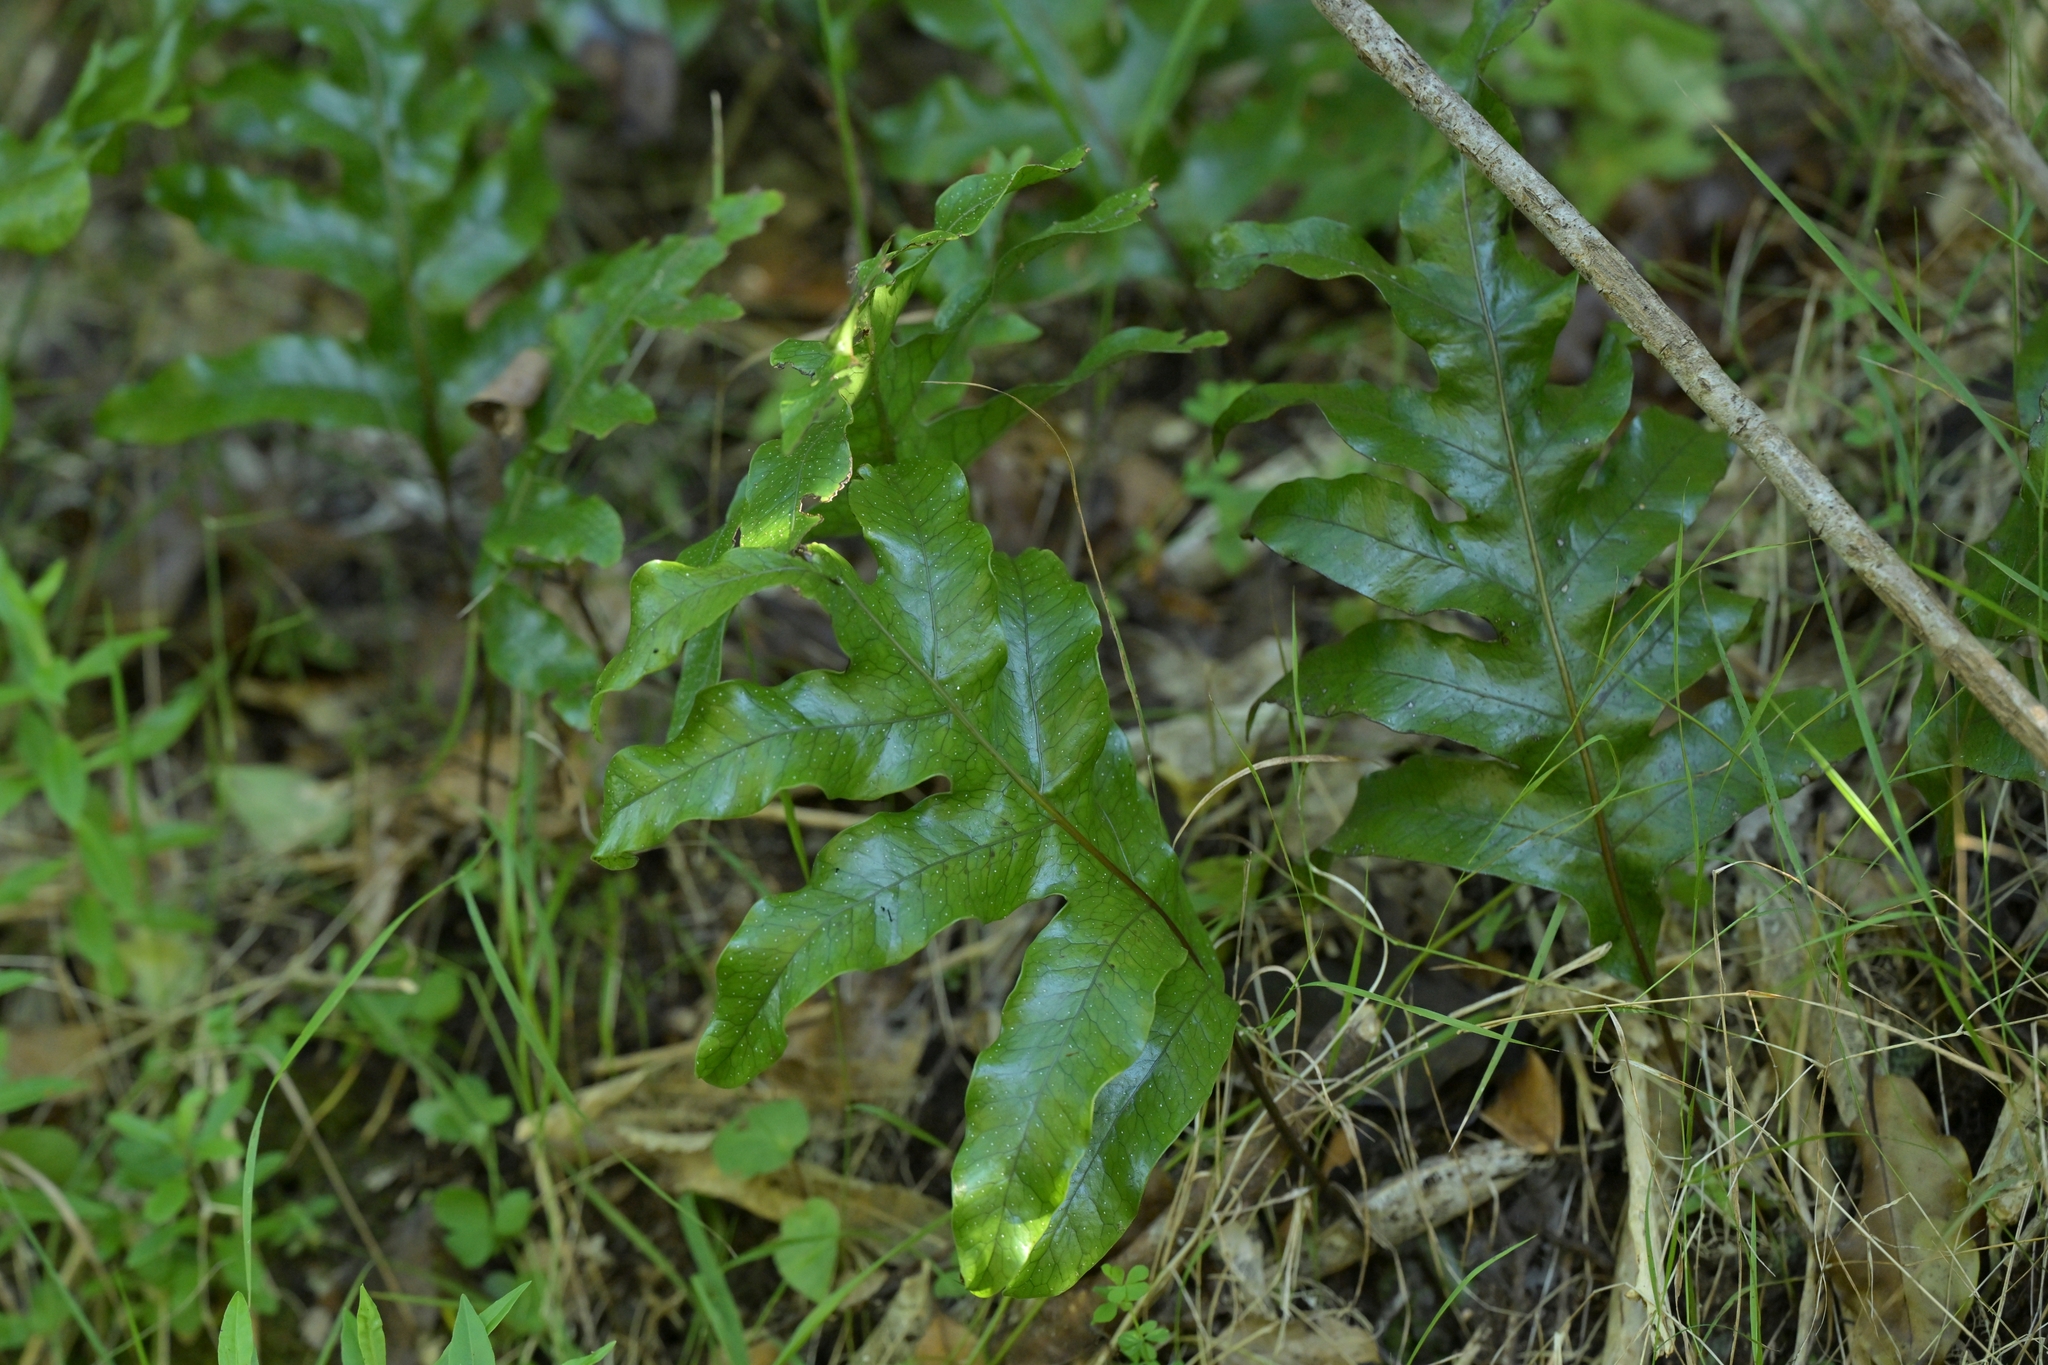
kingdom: Plantae
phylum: Tracheophyta
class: Polypodiopsida
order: Polypodiales
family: Polypodiaceae
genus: Lecanopteris
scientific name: Lecanopteris pustulata
